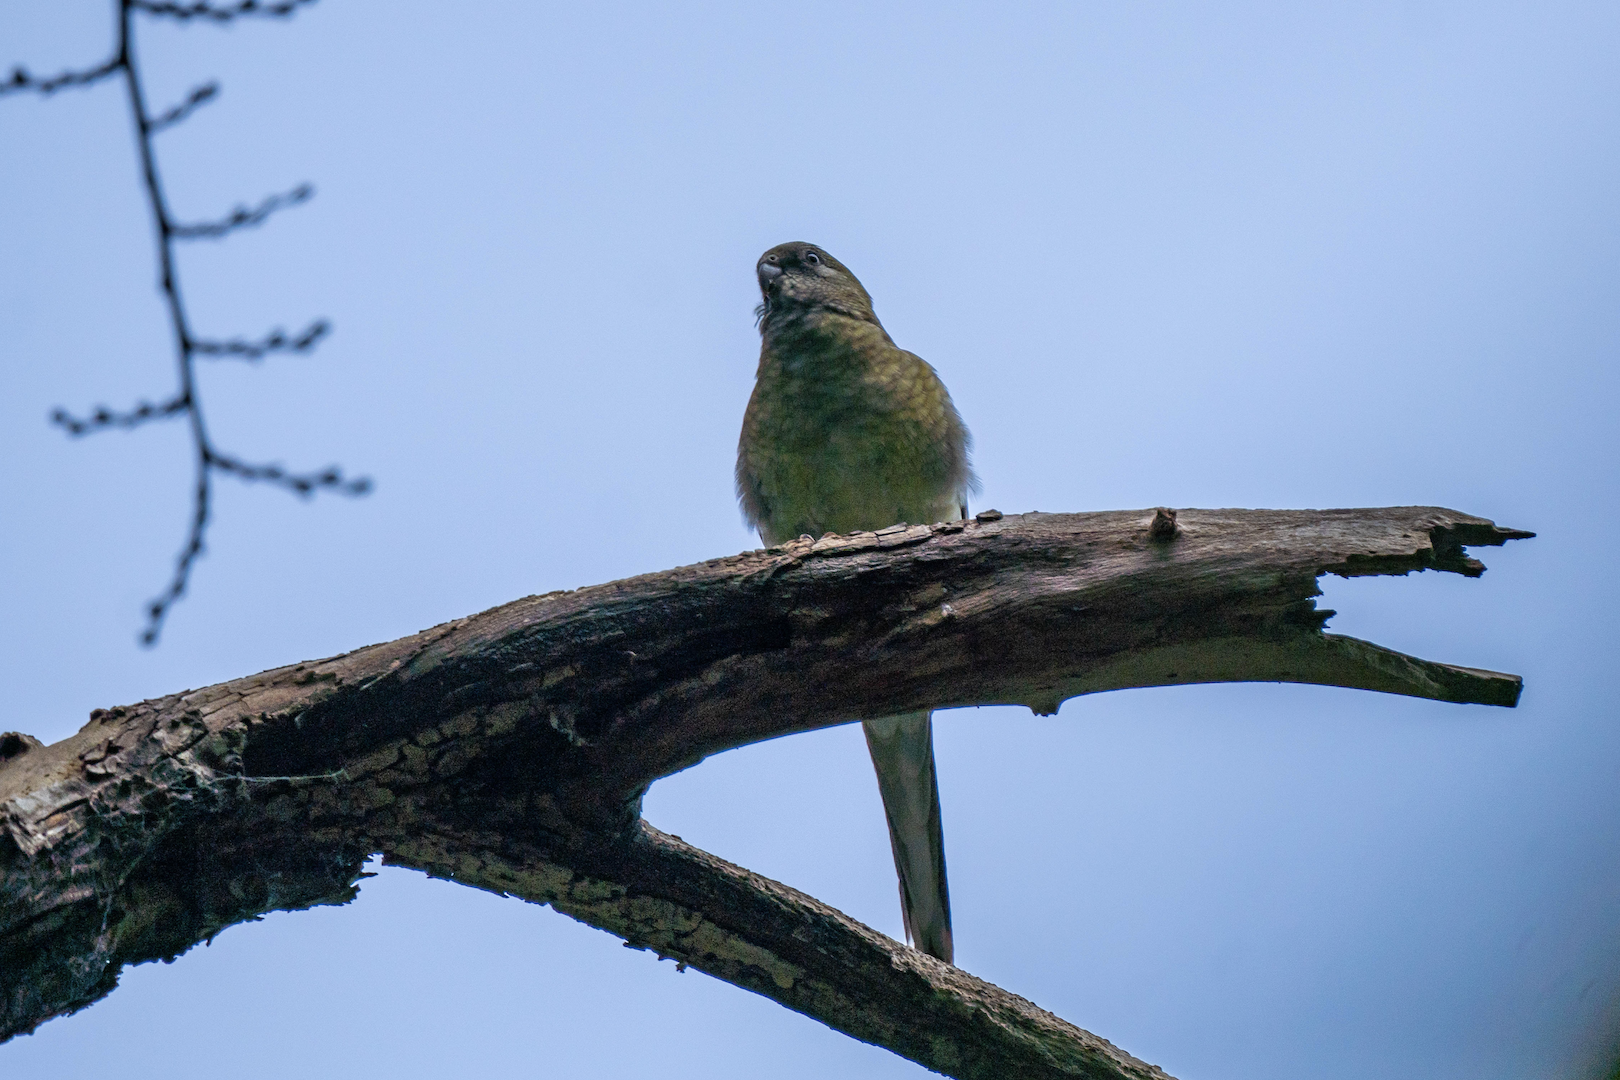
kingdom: Animalia
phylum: Chordata
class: Aves
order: Psittaciformes
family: Psittacidae
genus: Psephotus
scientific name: Psephotus haematonotus
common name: Red-rumped parrot
